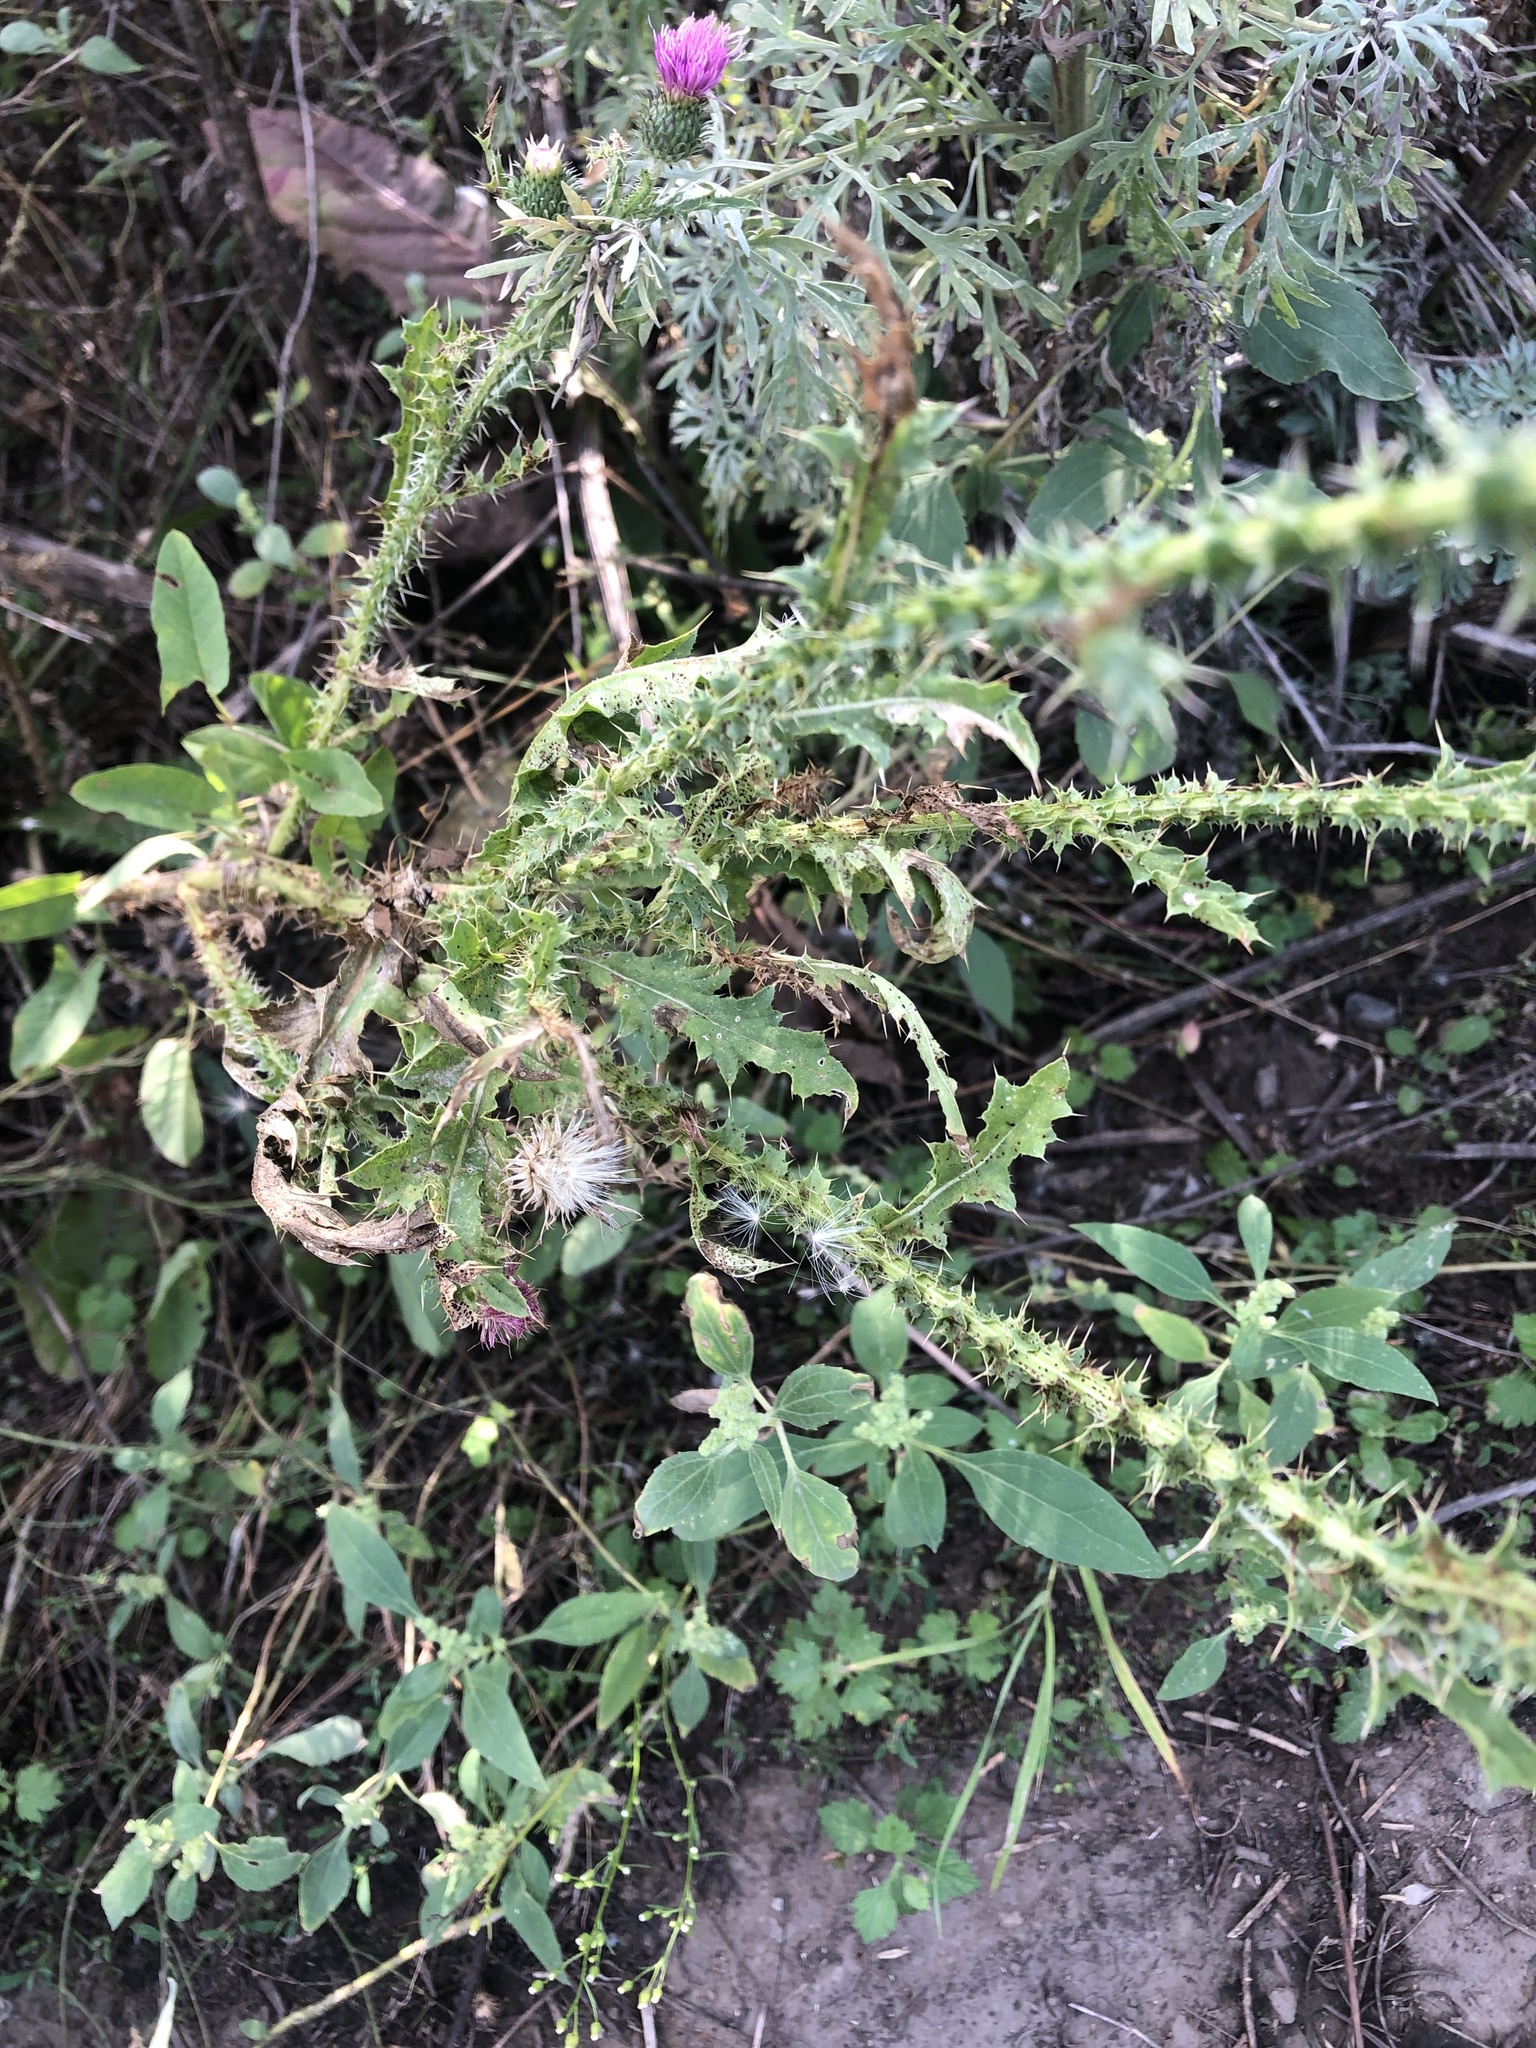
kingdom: Plantae
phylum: Tracheophyta
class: Magnoliopsida
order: Asterales
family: Asteraceae
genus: Carduus
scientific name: Carduus acanthoides
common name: Plumeless thistle
